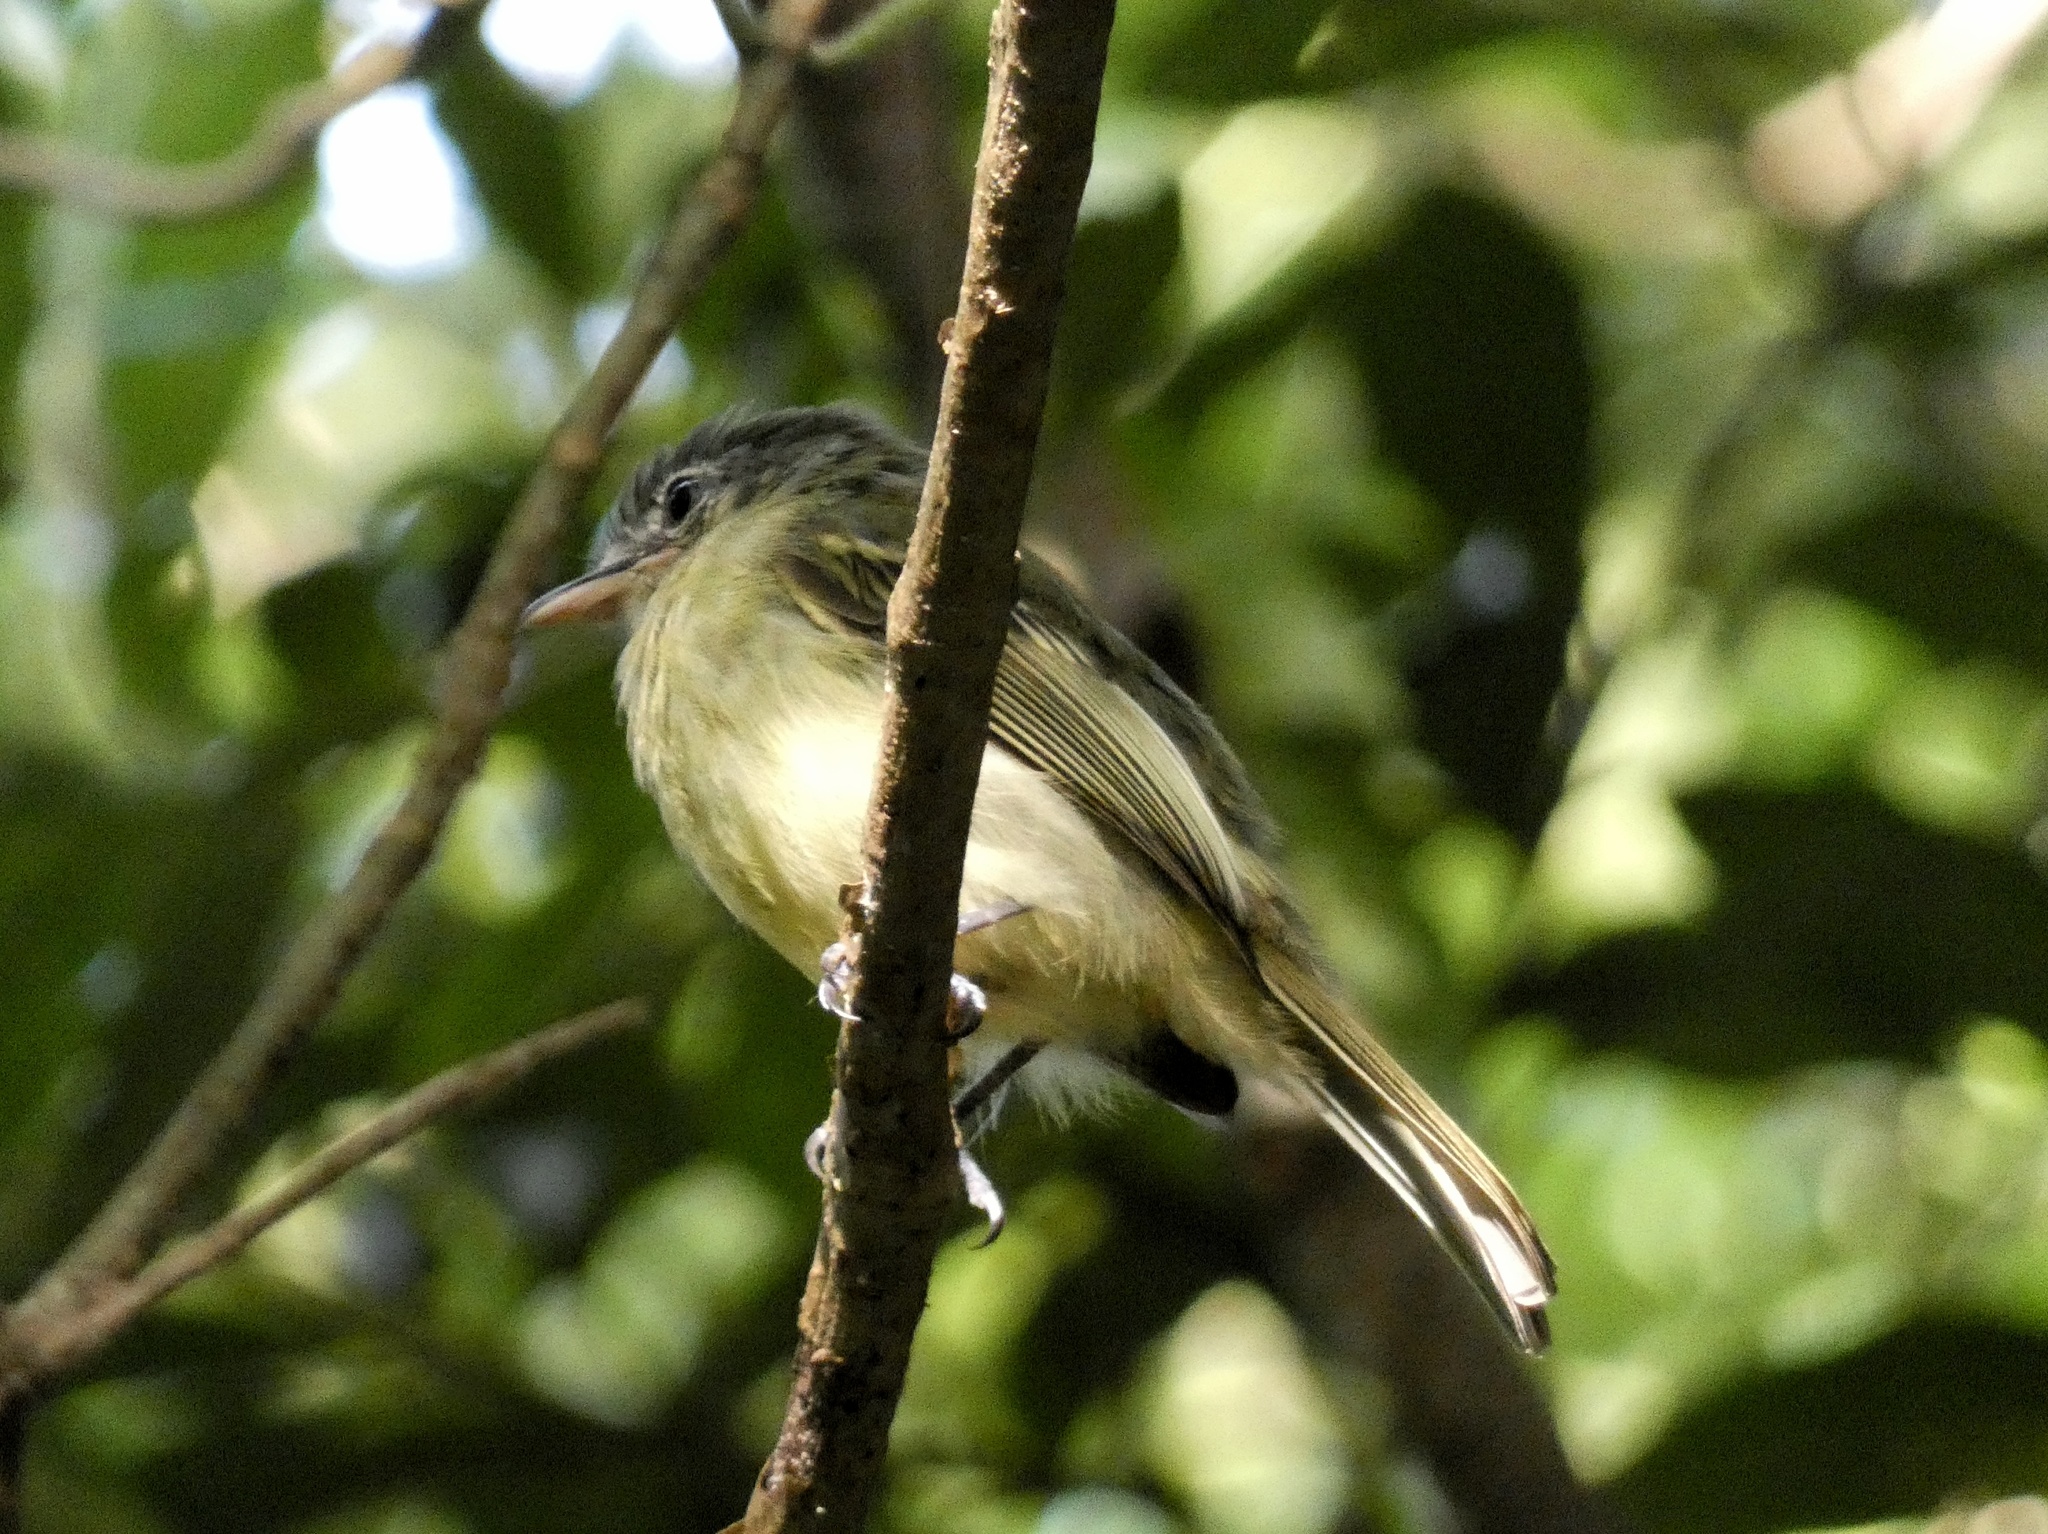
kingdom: Animalia
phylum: Chordata
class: Aves
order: Passeriformes
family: Tyrannidae
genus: Tolmomyias
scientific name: Tolmomyias sulphurescens
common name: Yellow-olive flycatcher
